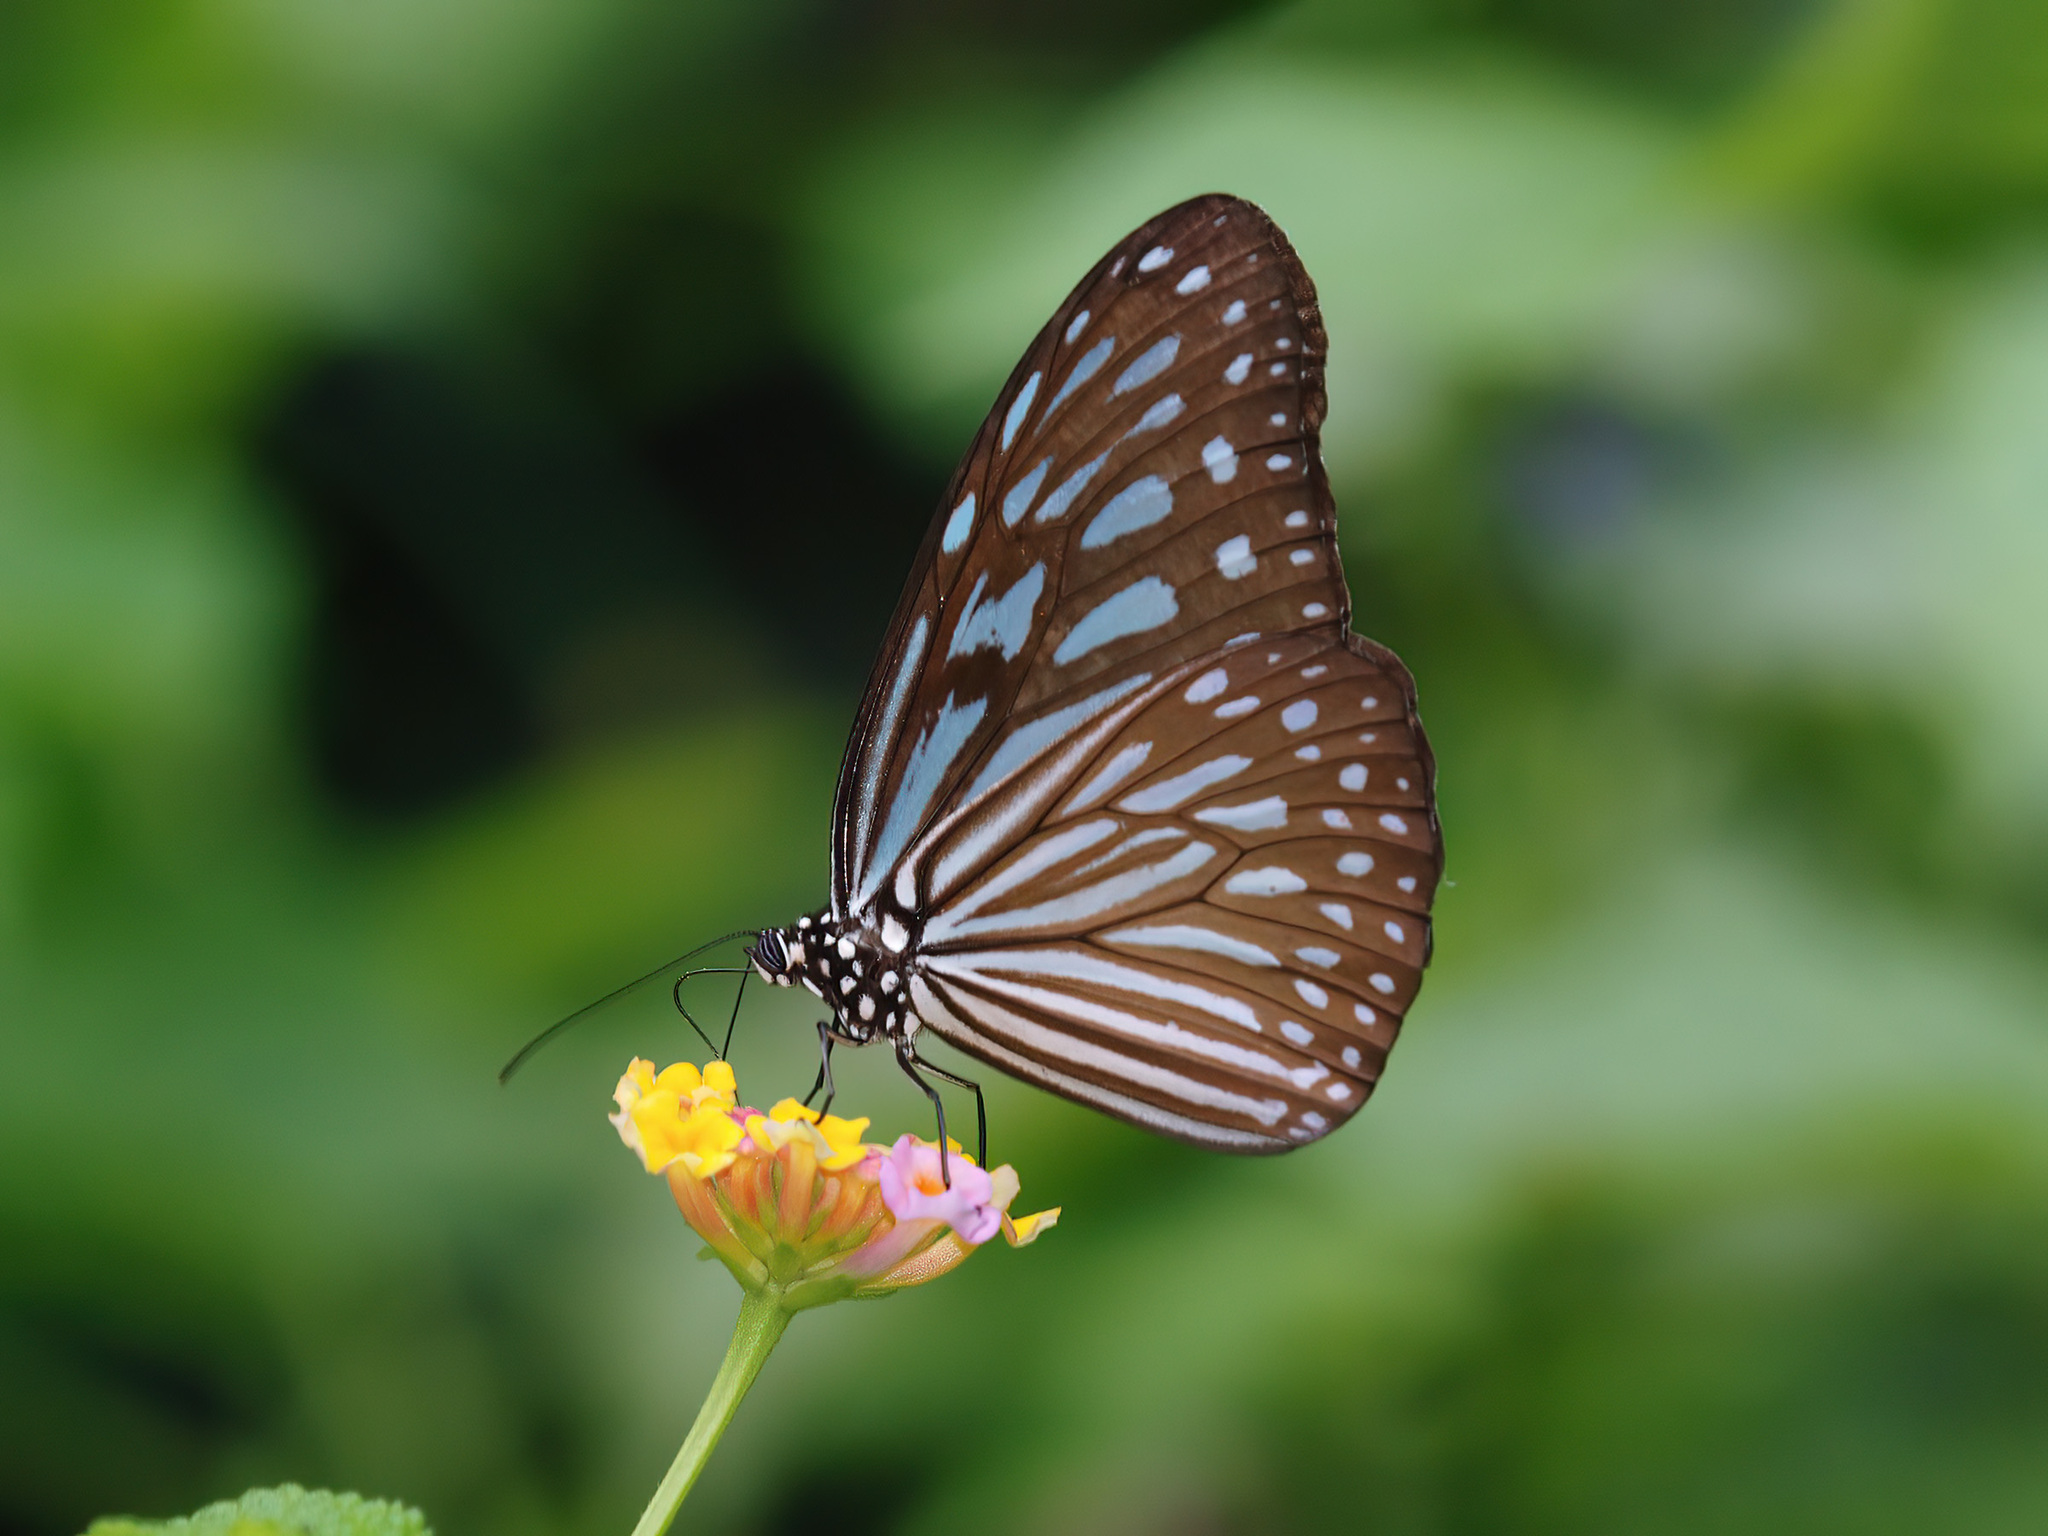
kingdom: Animalia
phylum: Arthropoda
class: Insecta
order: Lepidoptera
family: Nymphalidae
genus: Ideopsis
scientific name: Ideopsis vulgaris
